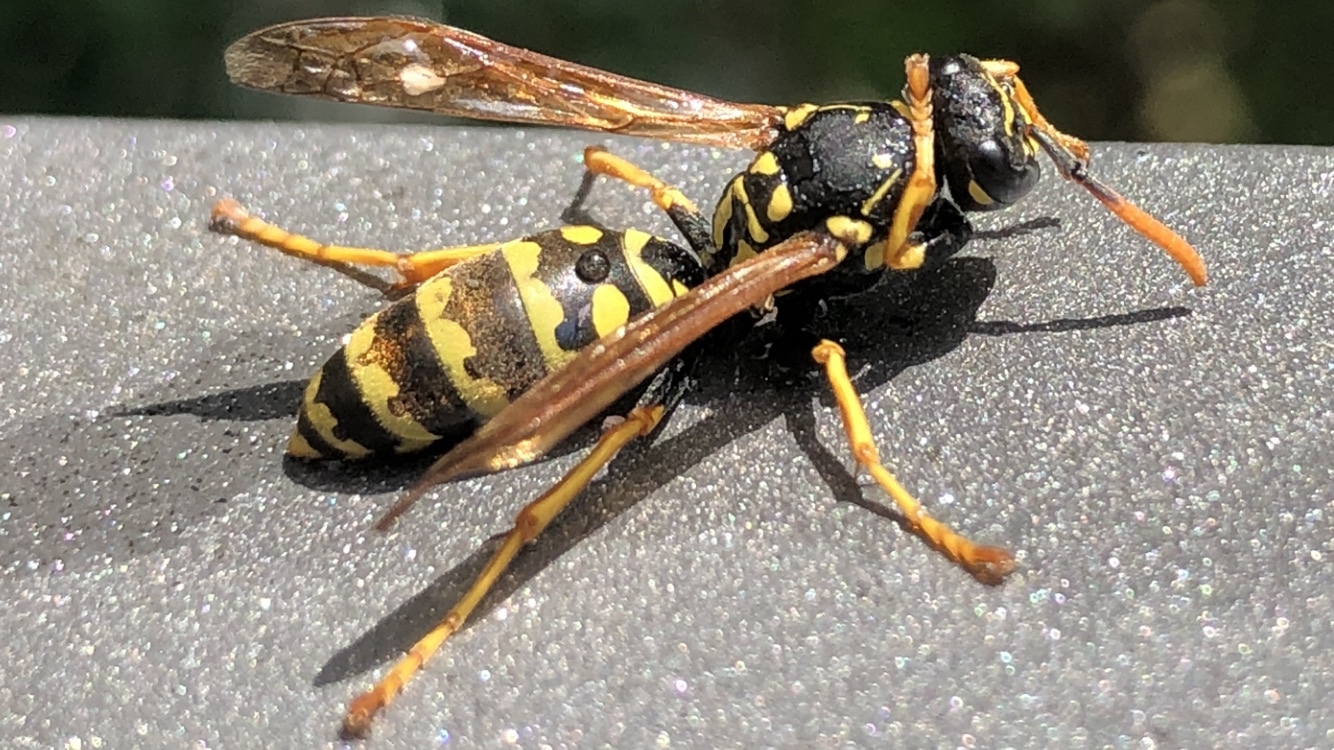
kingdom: Animalia
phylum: Arthropoda
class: Insecta
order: Hymenoptera
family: Eumenidae
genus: Polistes
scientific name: Polistes dominula
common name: Paper wasp
